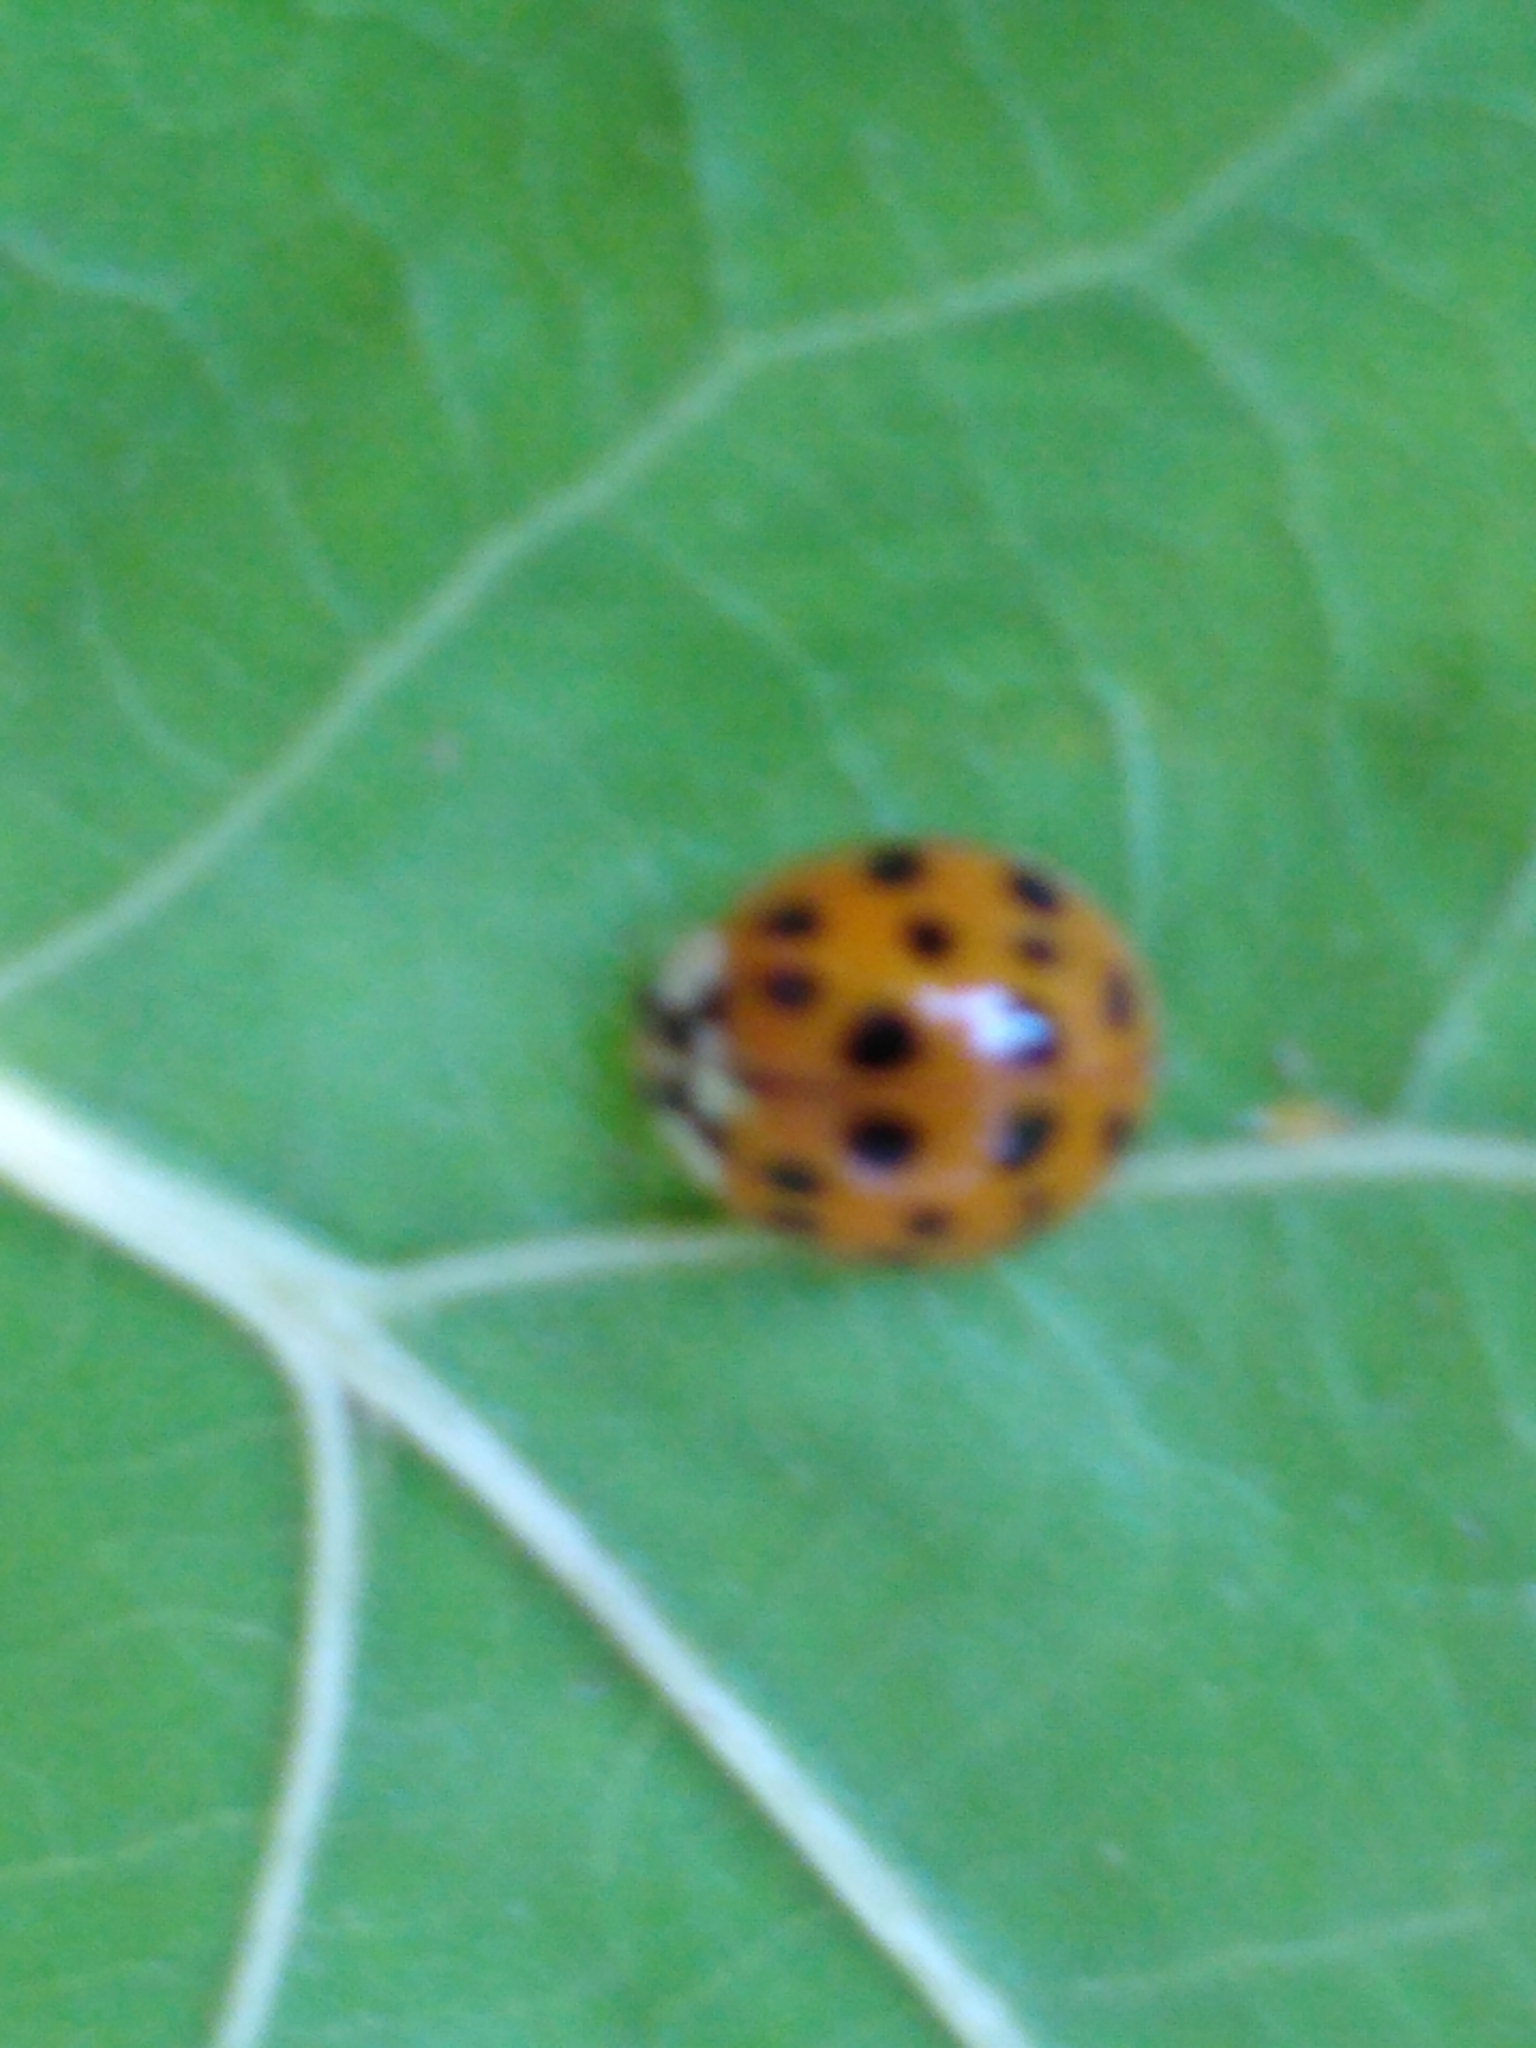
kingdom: Animalia
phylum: Arthropoda
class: Insecta
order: Coleoptera
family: Coccinellidae
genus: Harmonia
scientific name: Harmonia axyridis
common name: Harlequin ladybird
